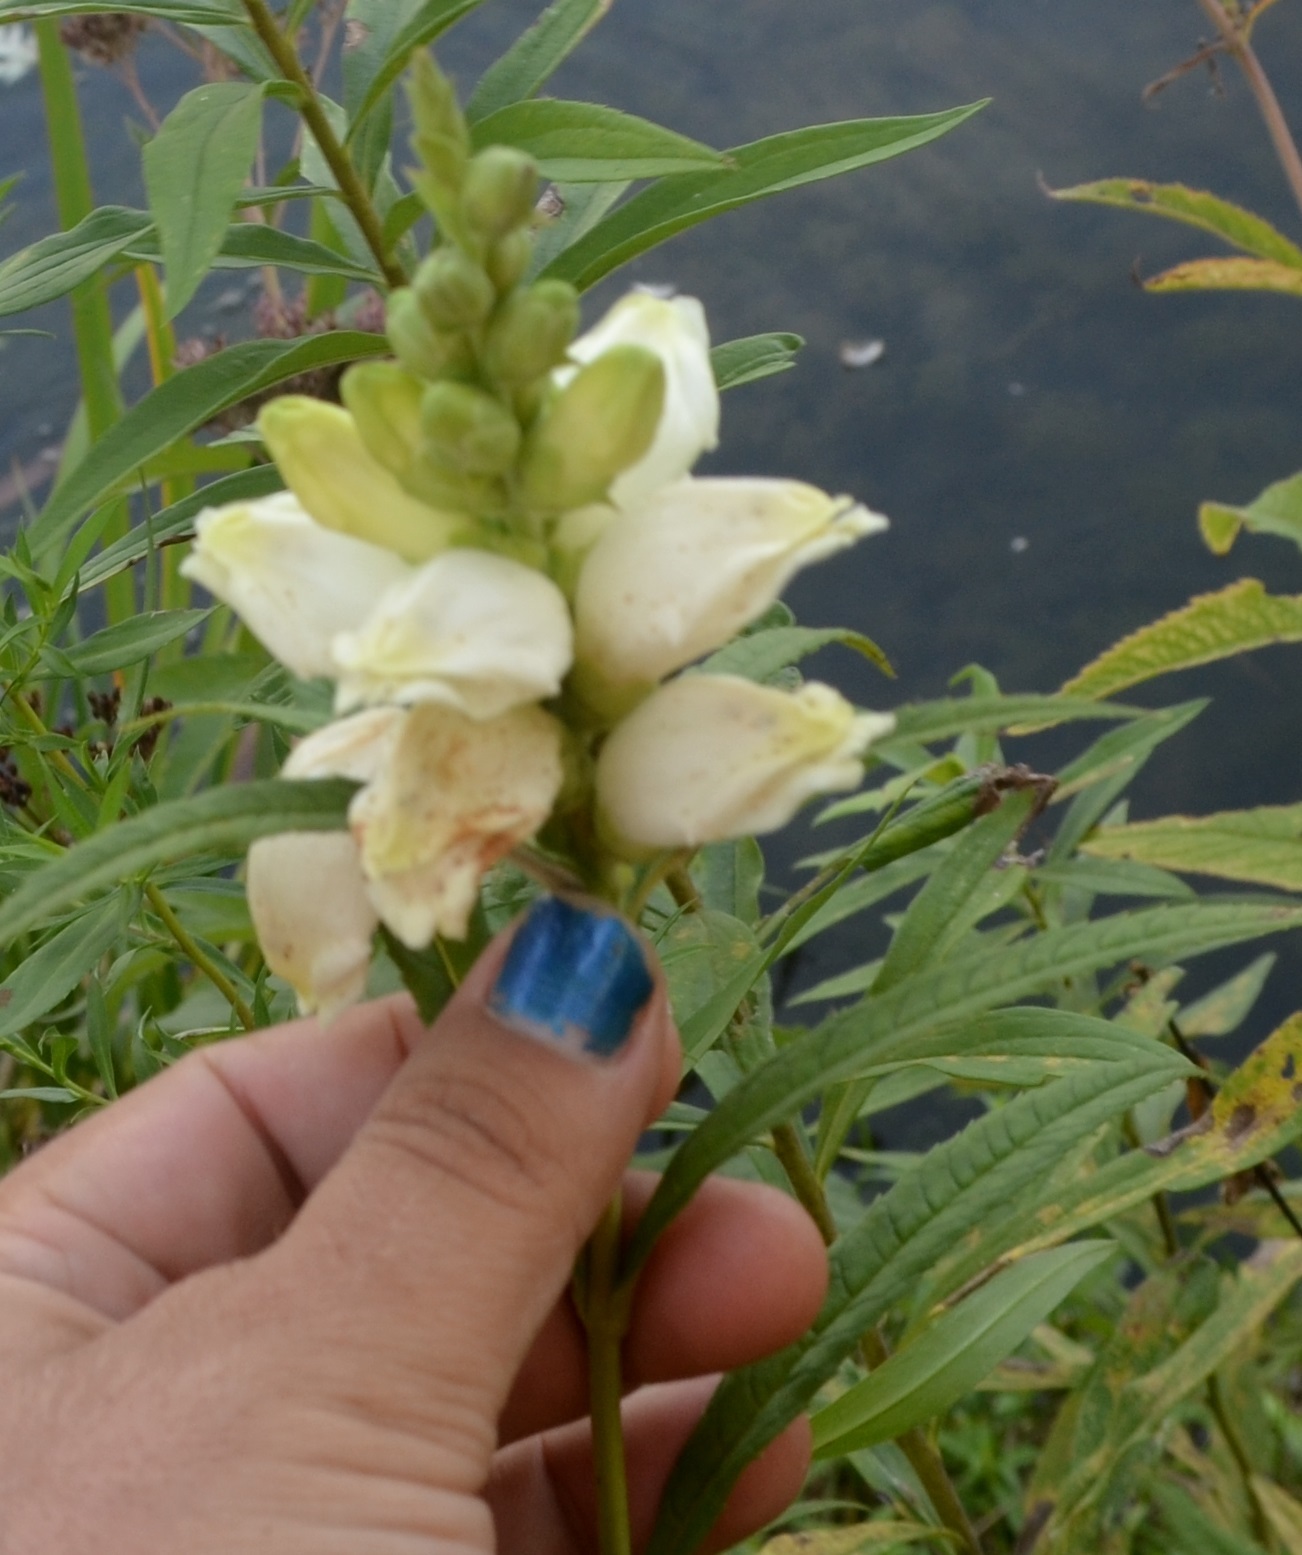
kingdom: Plantae
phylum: Tracheophyta
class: Magnoliopsida
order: Lamiales
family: Plantaginaceae
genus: Chelone
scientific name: Chelone glabra
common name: Snakehead
